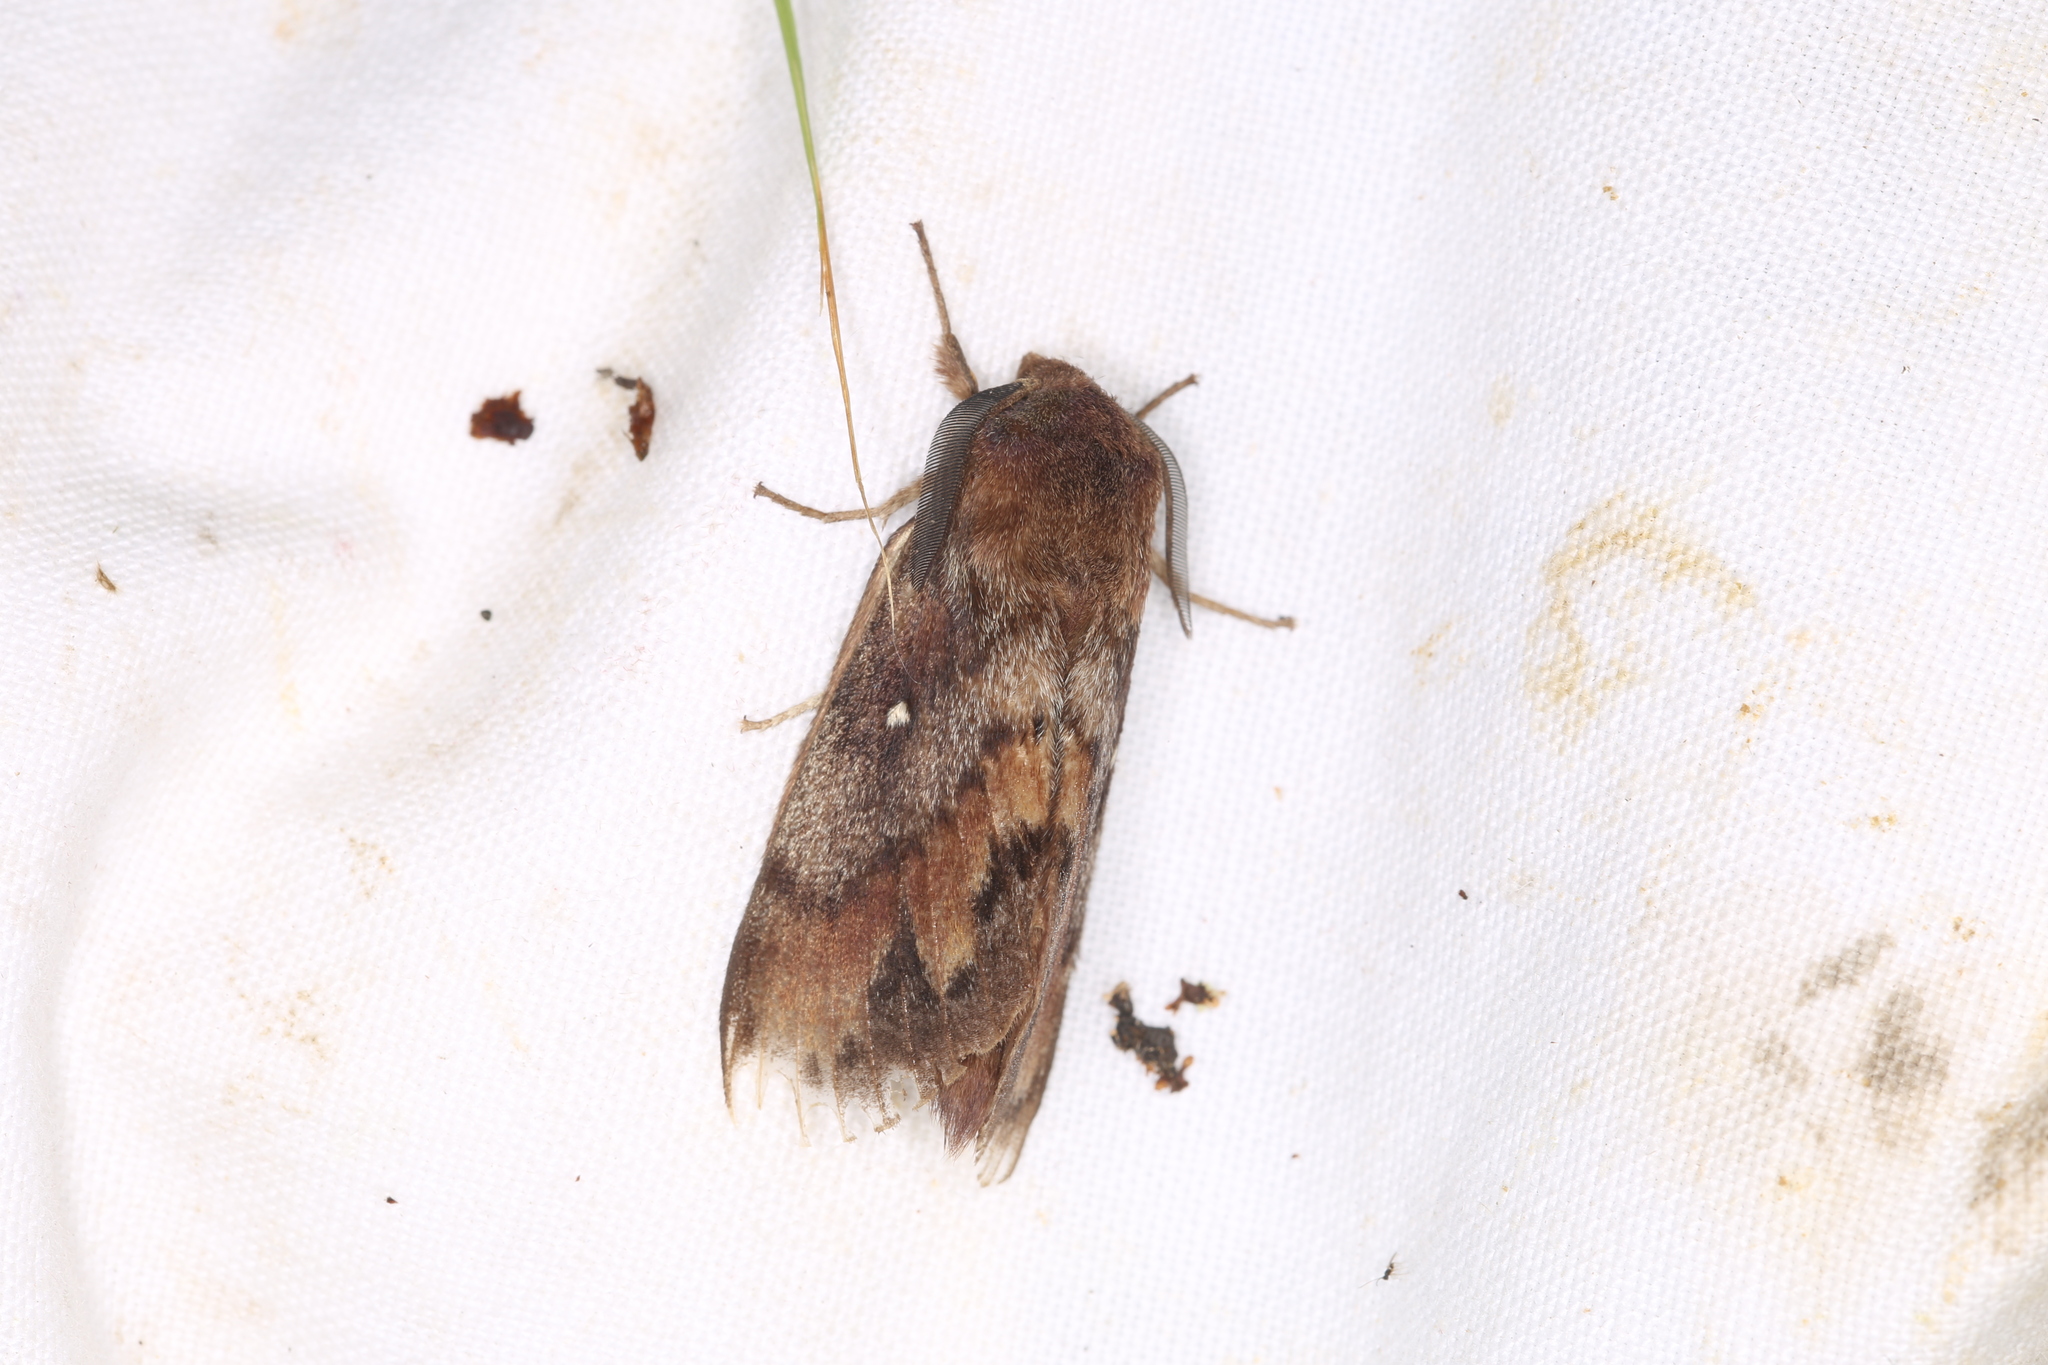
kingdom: Animalia
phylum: Arthropoda
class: Insecta
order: Lepidoptera
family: Lasiocampidae
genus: Dendrolimus
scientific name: Dendrolimus pini
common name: Pine-tree lappet
